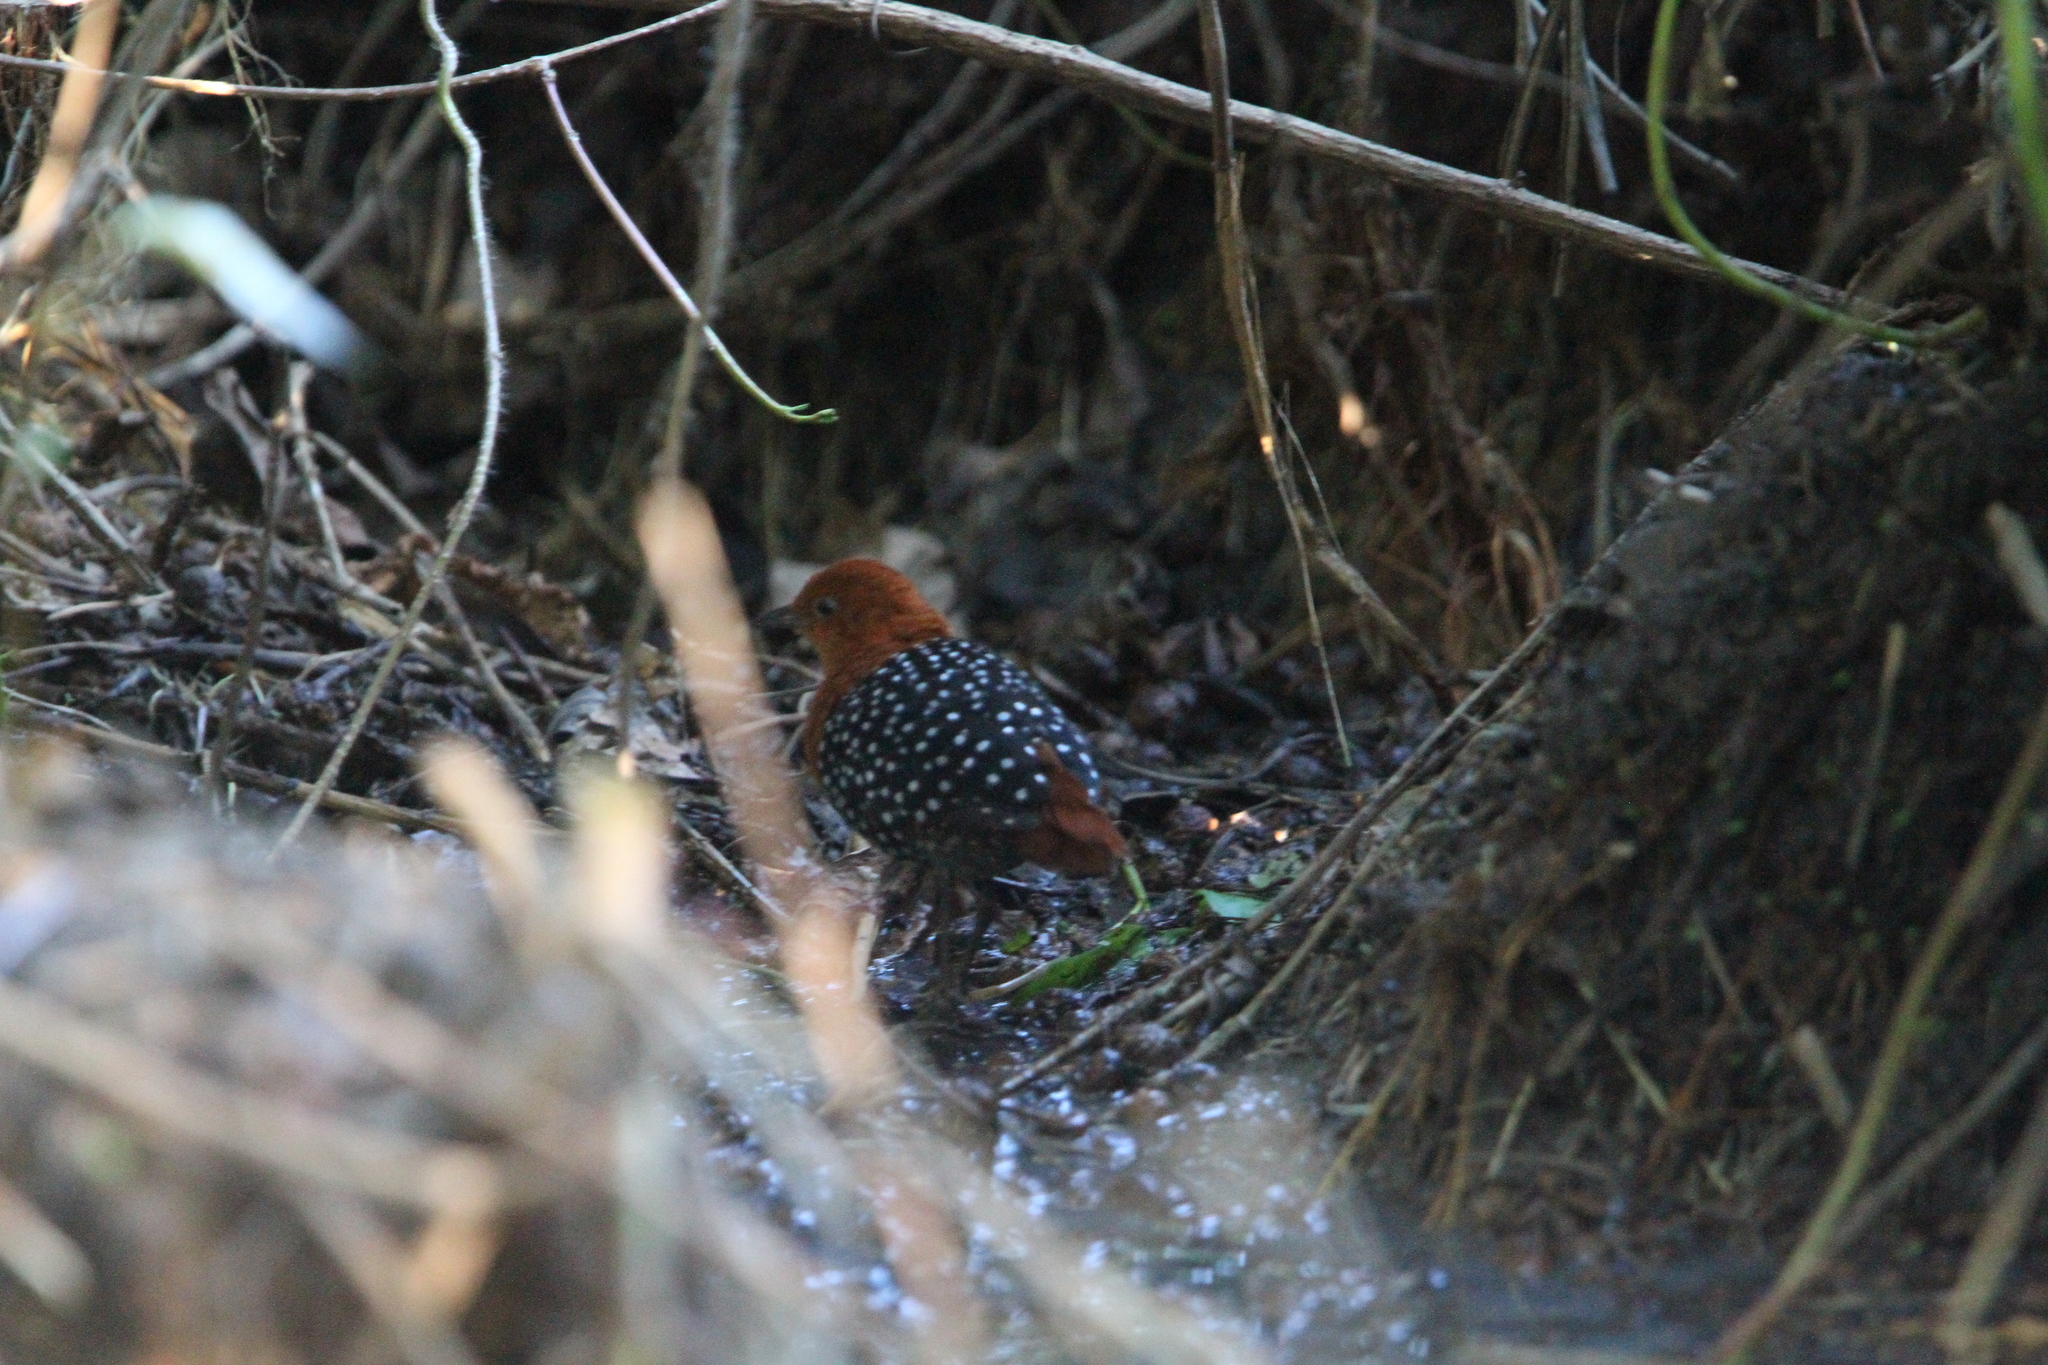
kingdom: Animalia
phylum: Chordata
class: Aves
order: Gruiformes
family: Rallidae
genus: Sarothrura
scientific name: Sarothrura pulchra
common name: White-spotted flufftail
